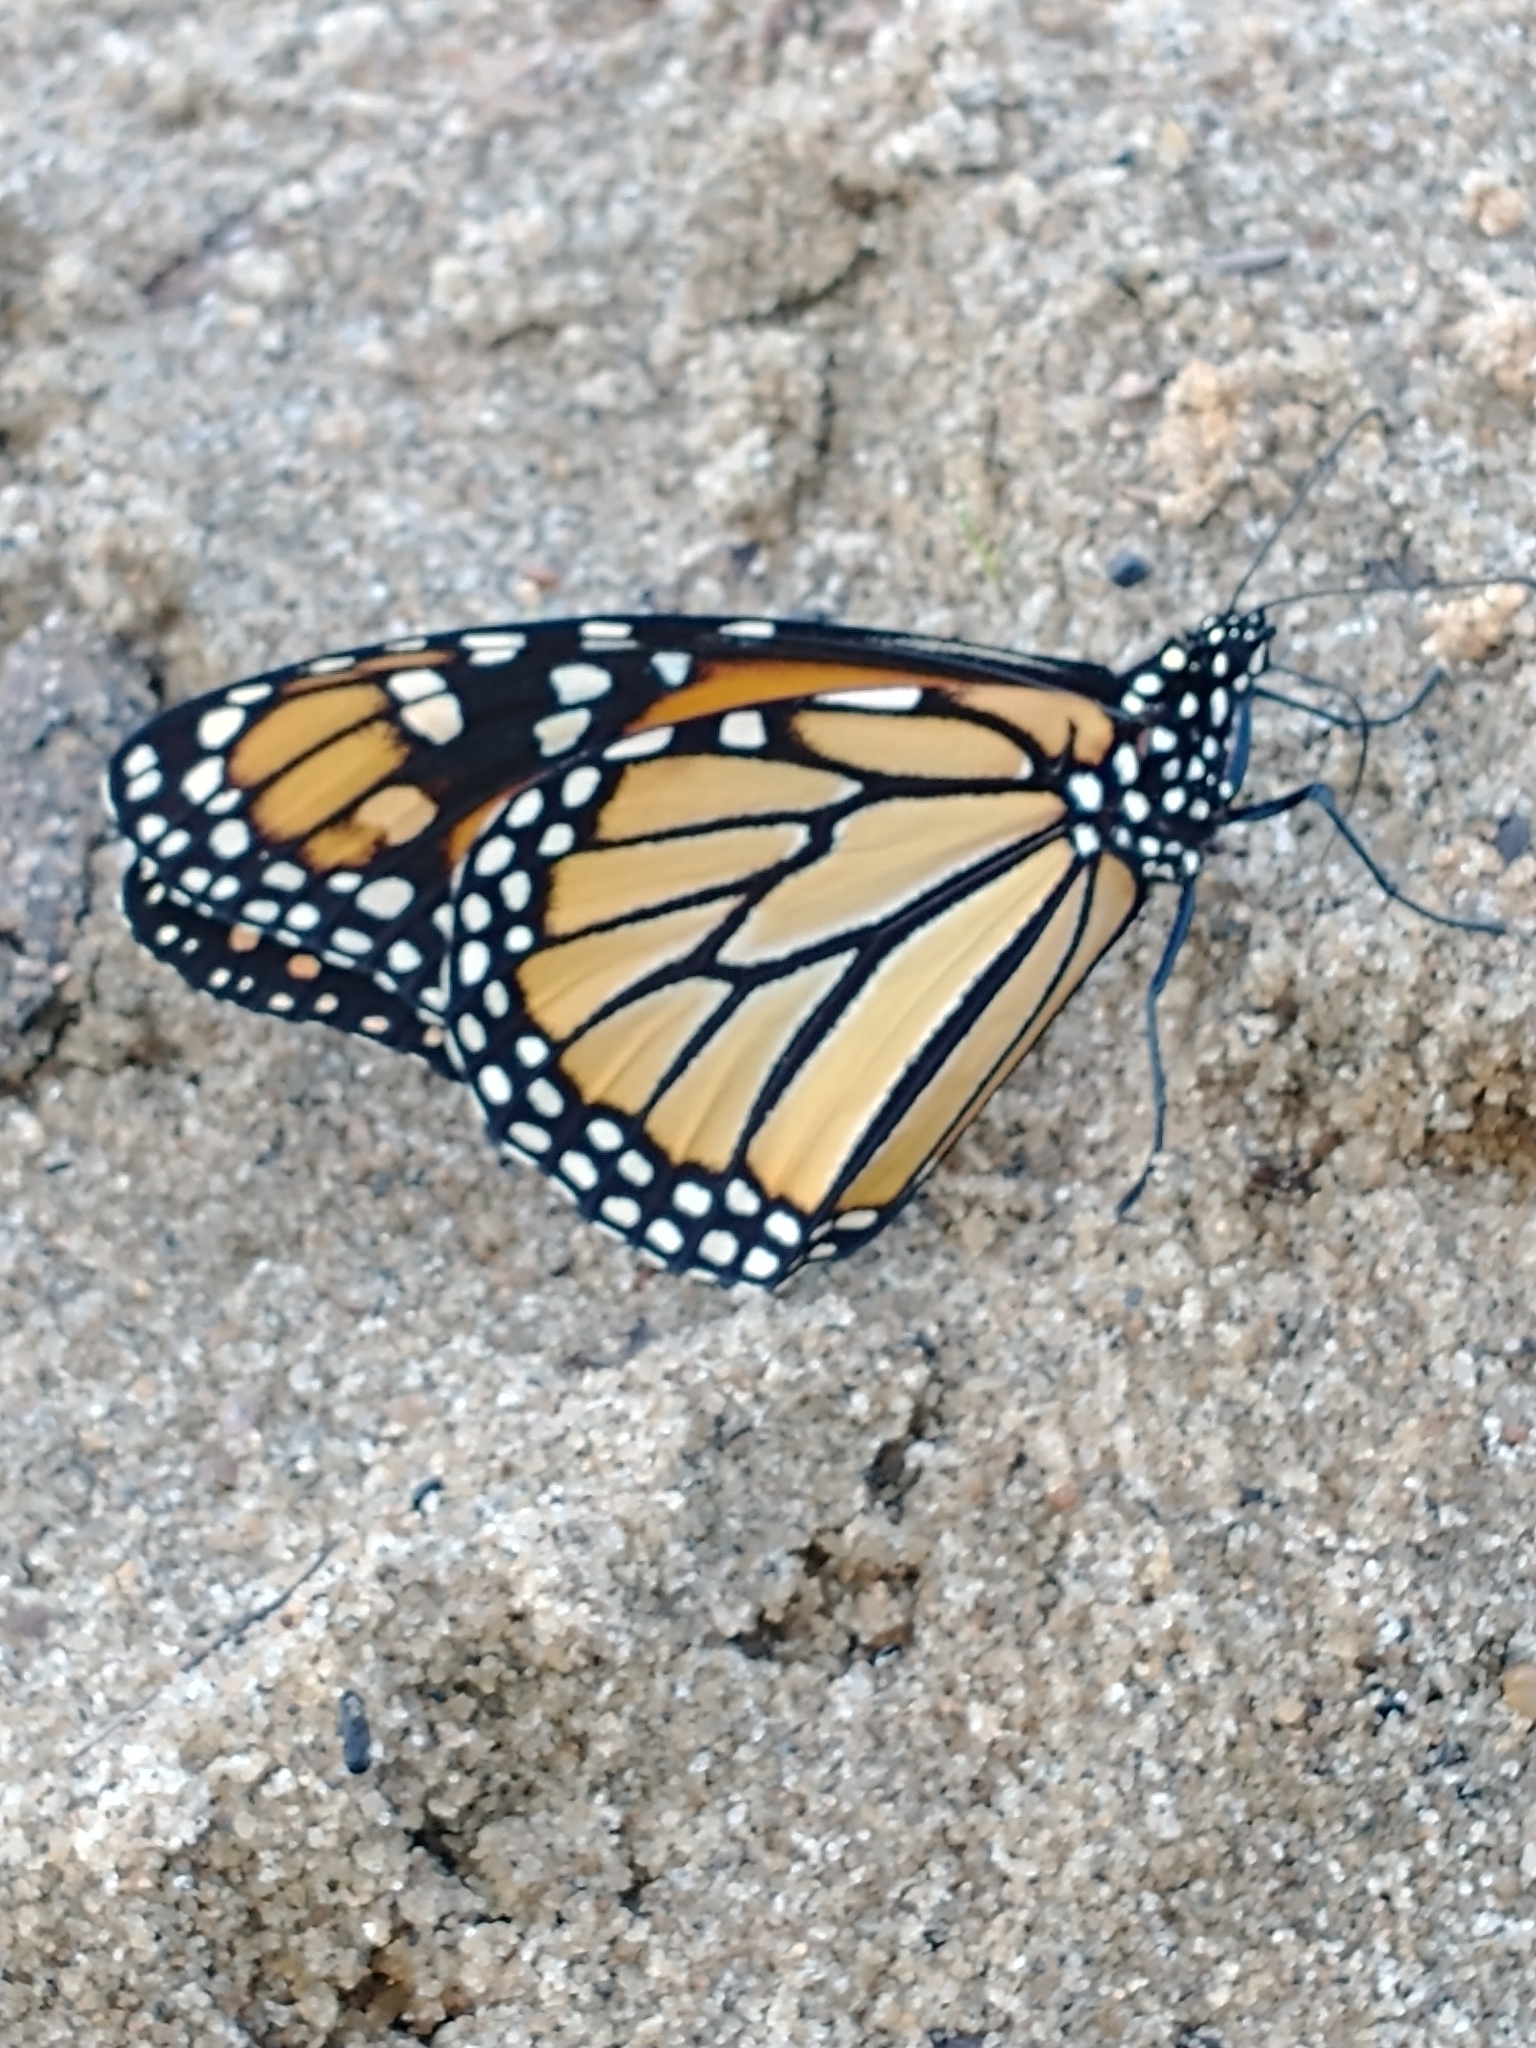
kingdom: Animalia
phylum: Arthropoda
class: Insecta
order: Lepidoptera
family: Nymphalidae
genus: Danaus
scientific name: Danaus plexippus
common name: Monarch
